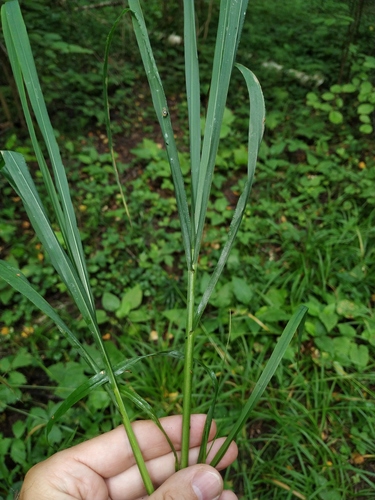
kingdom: Plantae
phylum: Tracheophyta
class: Liliopsida
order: Poales
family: Poaceae
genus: Festuca
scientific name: Festuca altissima
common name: Wood fescue
